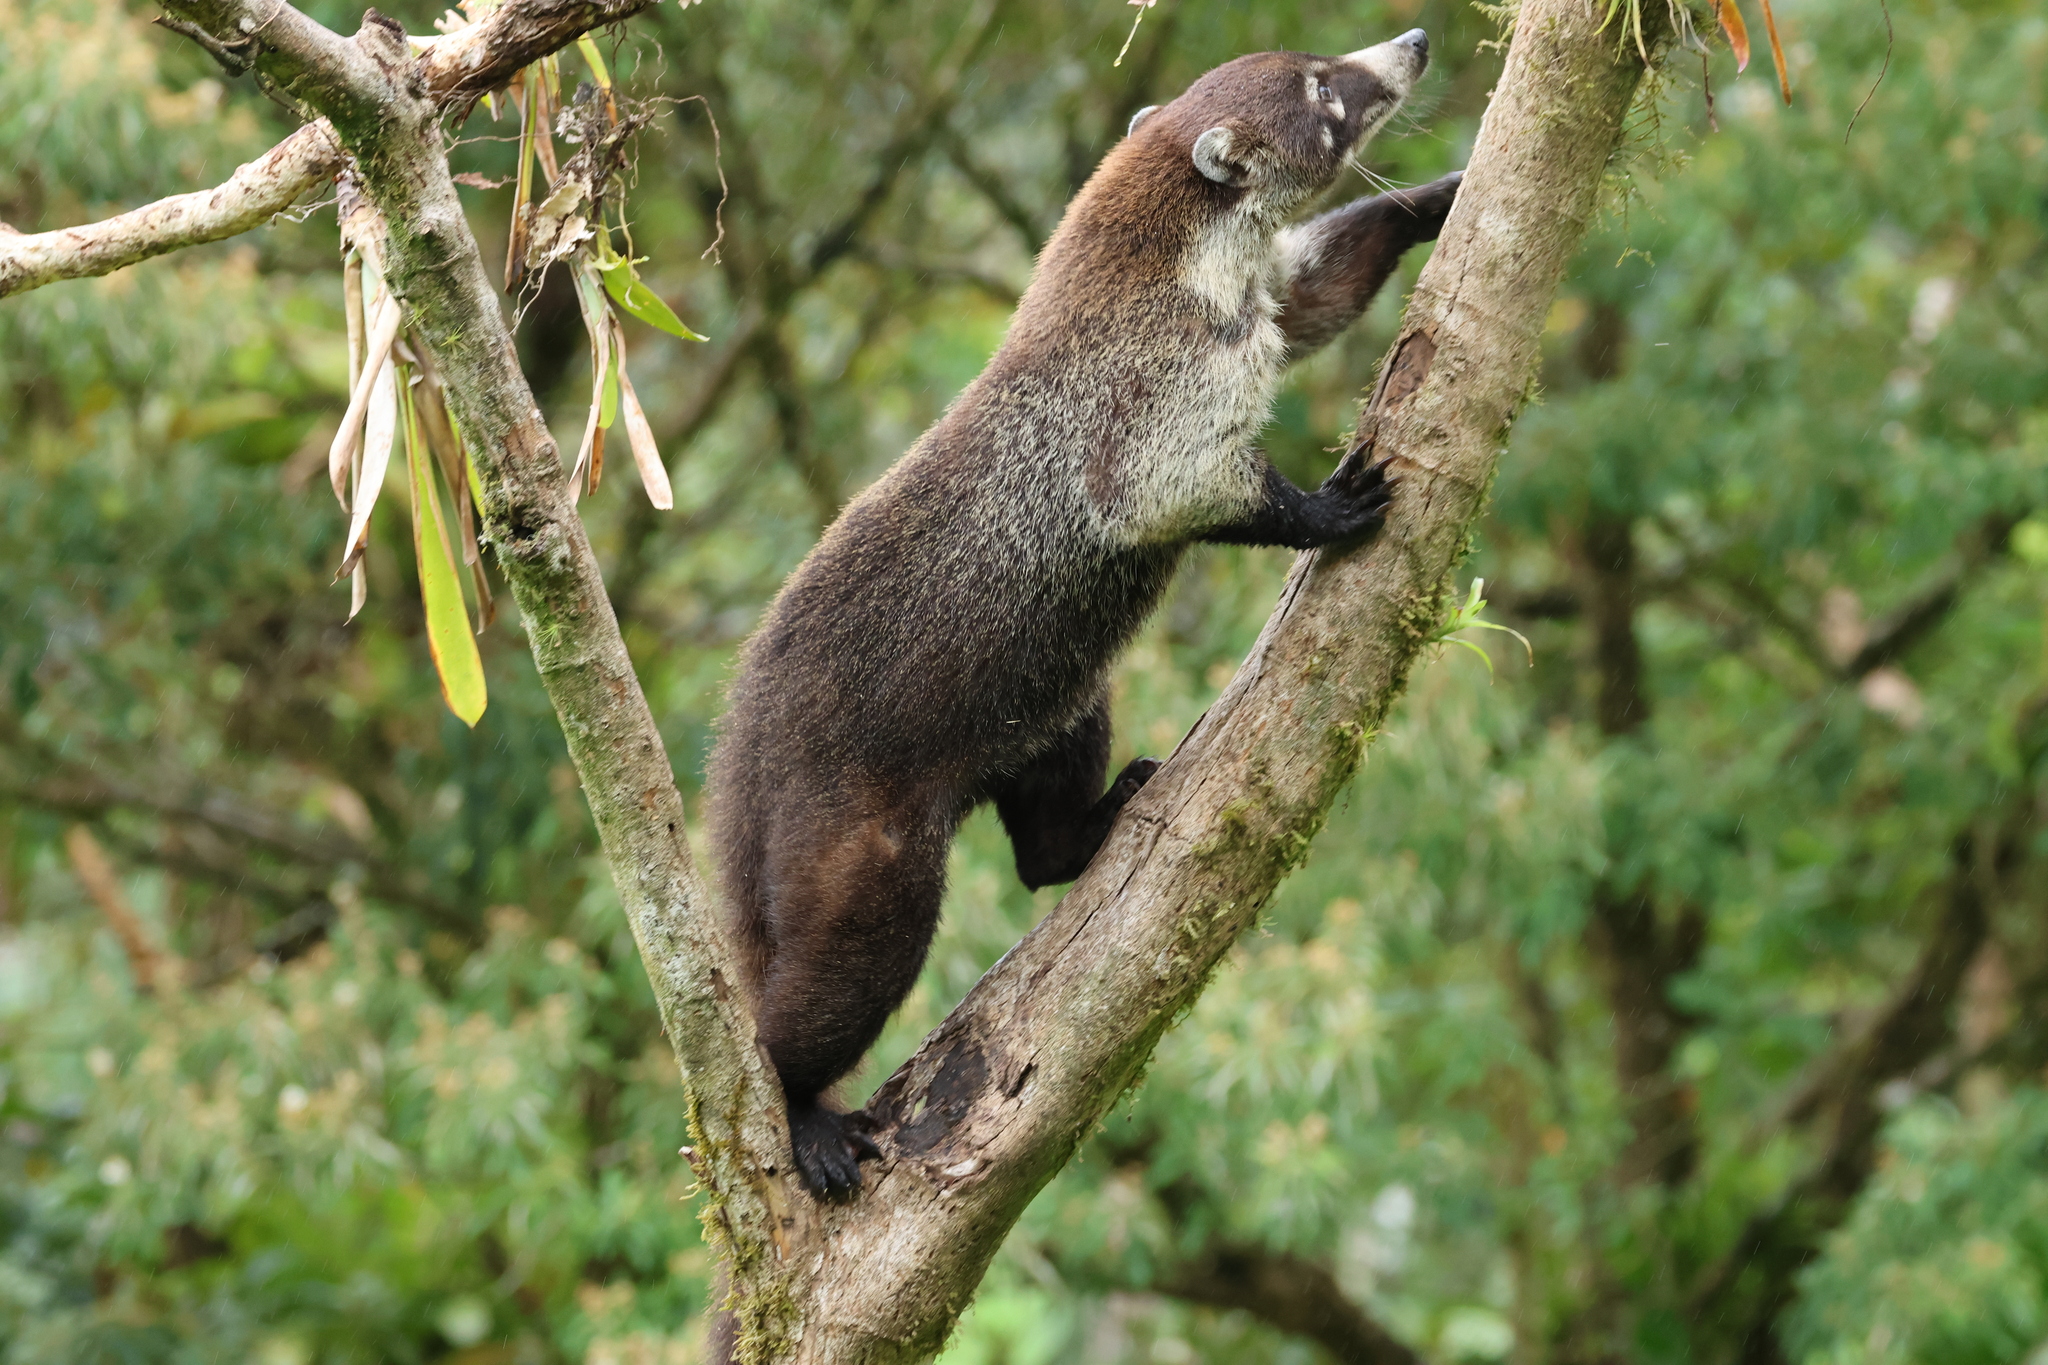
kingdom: Animalia
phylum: Chordata
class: Mammalia
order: Carnivora
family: Procyonidae
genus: Nasua
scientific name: Nasua narica
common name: White-nosed coati
